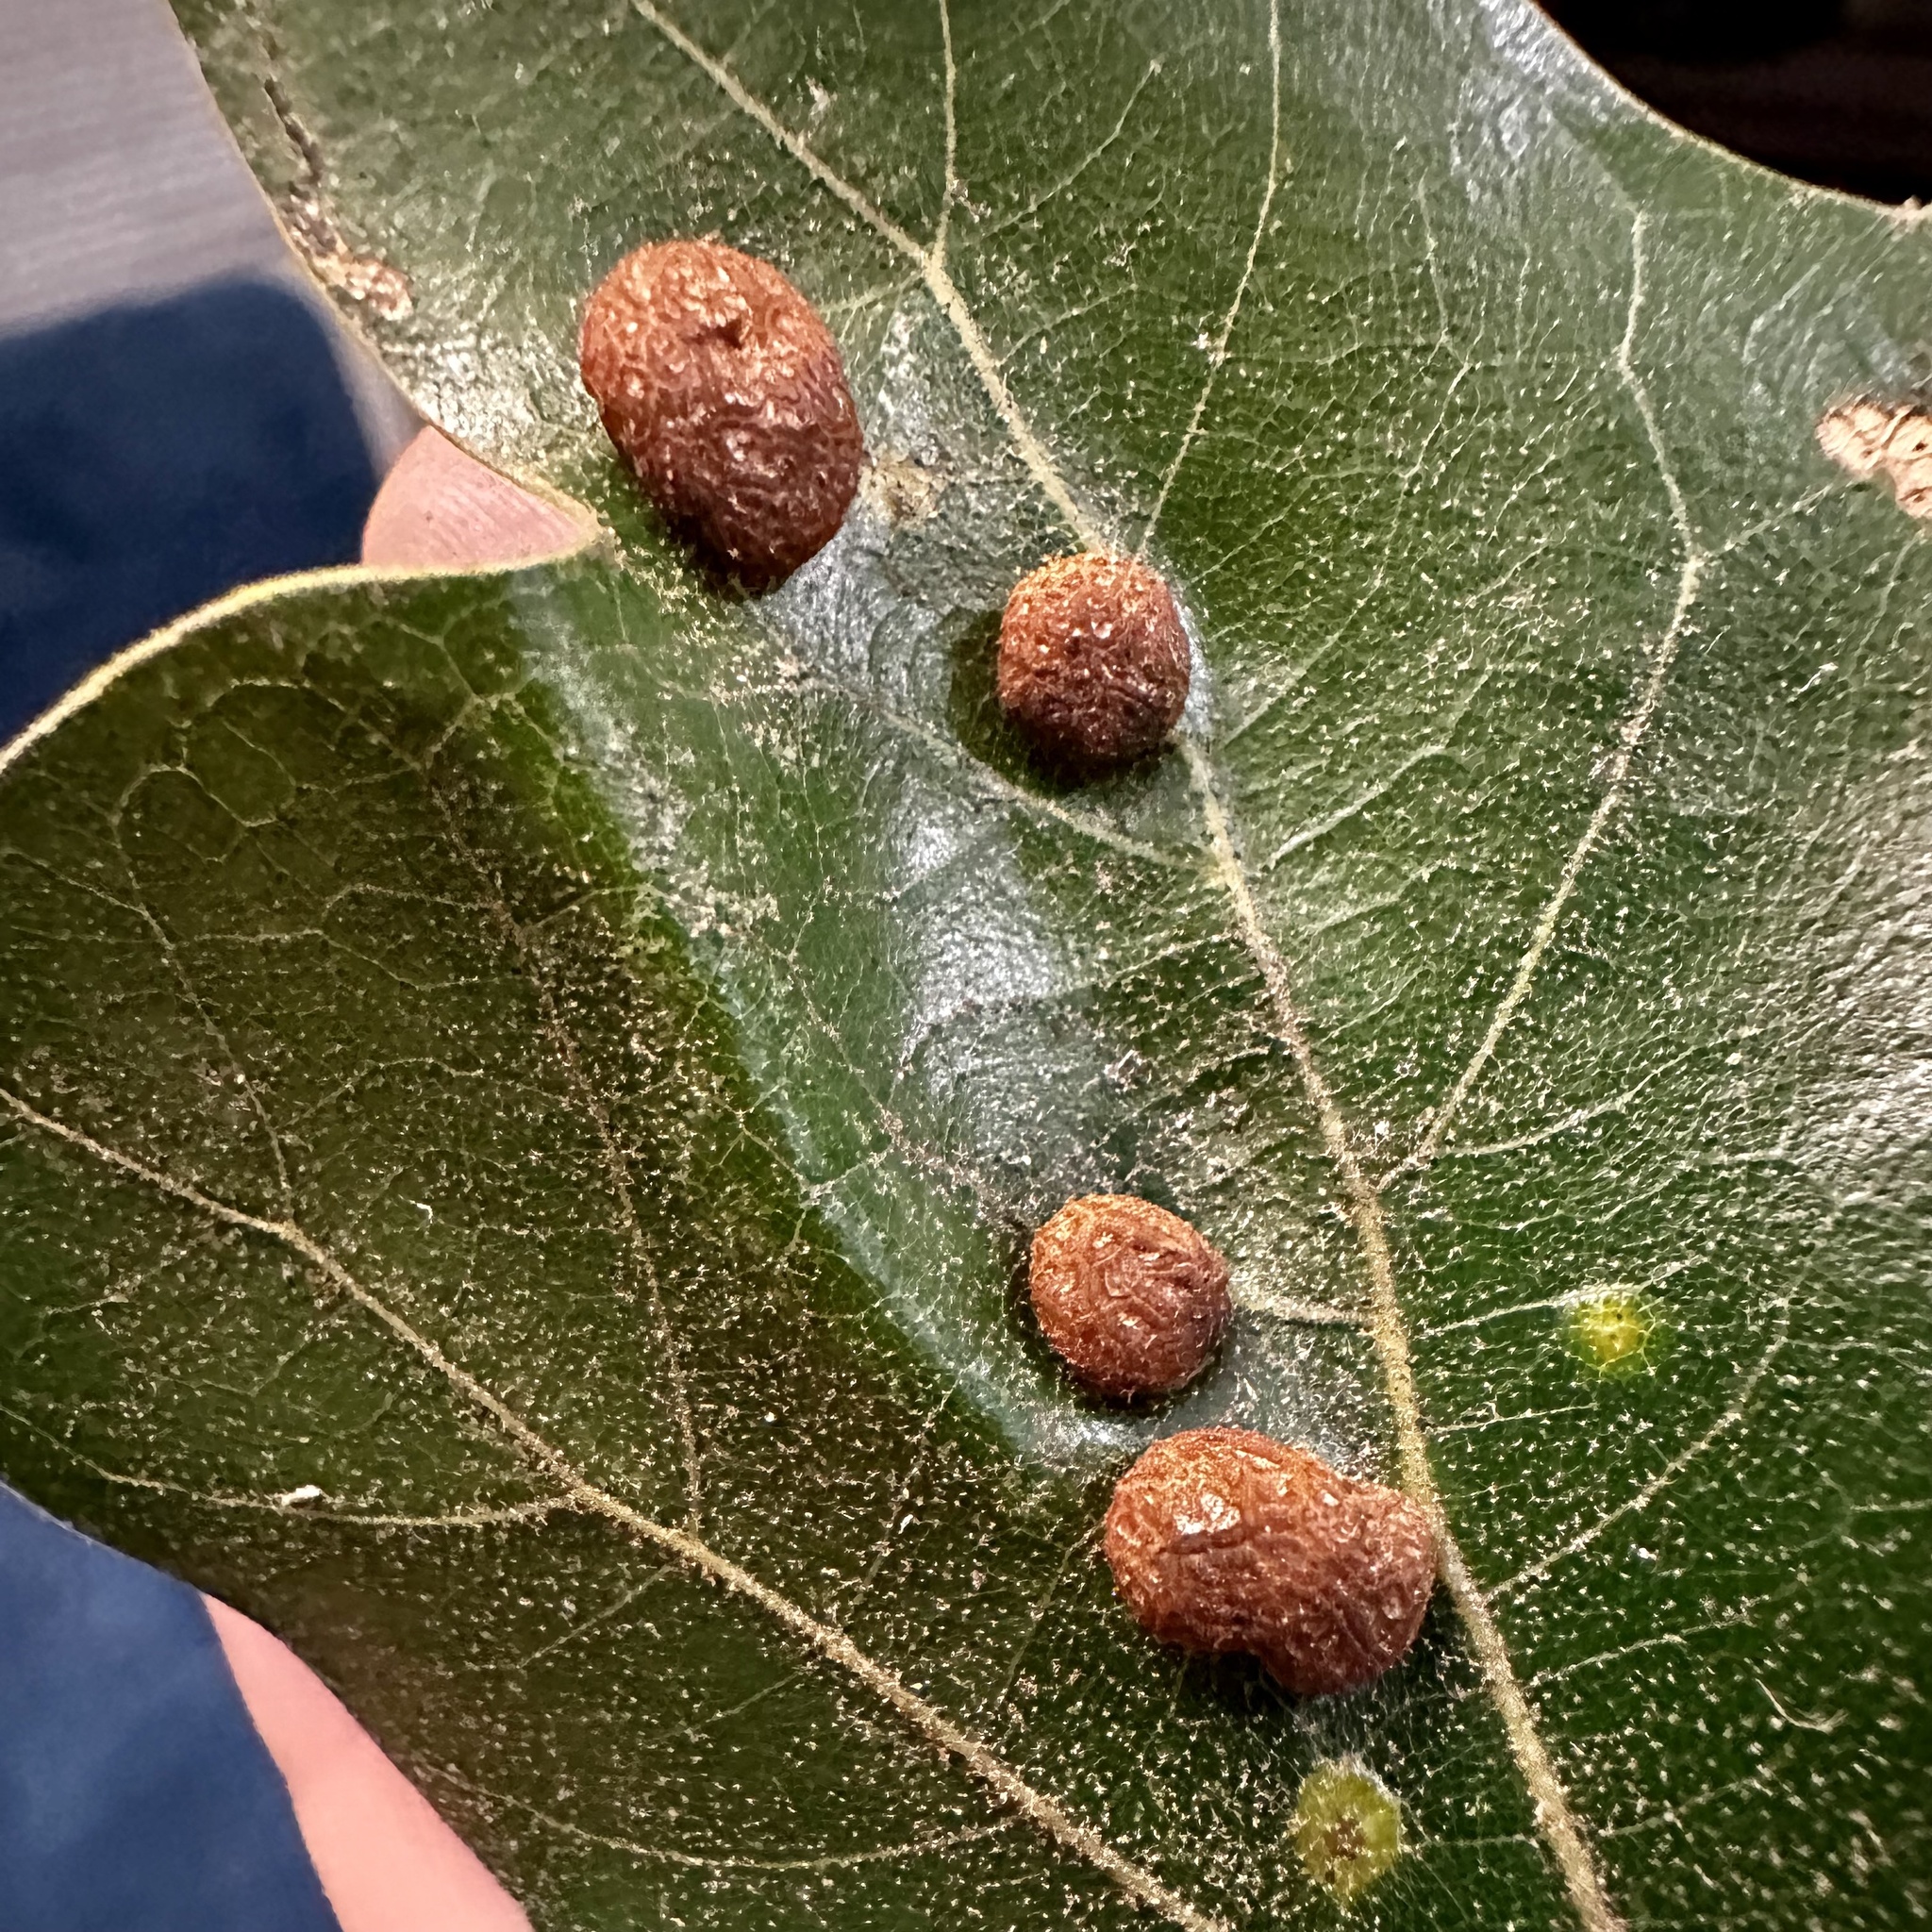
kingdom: Animalia
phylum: Arthropoda
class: Insecta
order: Diptera
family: Cecidomyiidae
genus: Polystepha
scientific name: Polystepha pilulae
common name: Oak leaf gall midge
